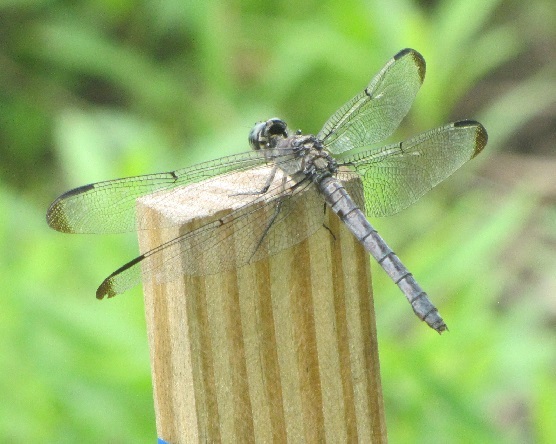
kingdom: Animalia
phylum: Arthropoda
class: Insecta
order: Odonata
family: Libellulidae
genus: Libellula
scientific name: Libellula vibrans
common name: Great blue skimmer
